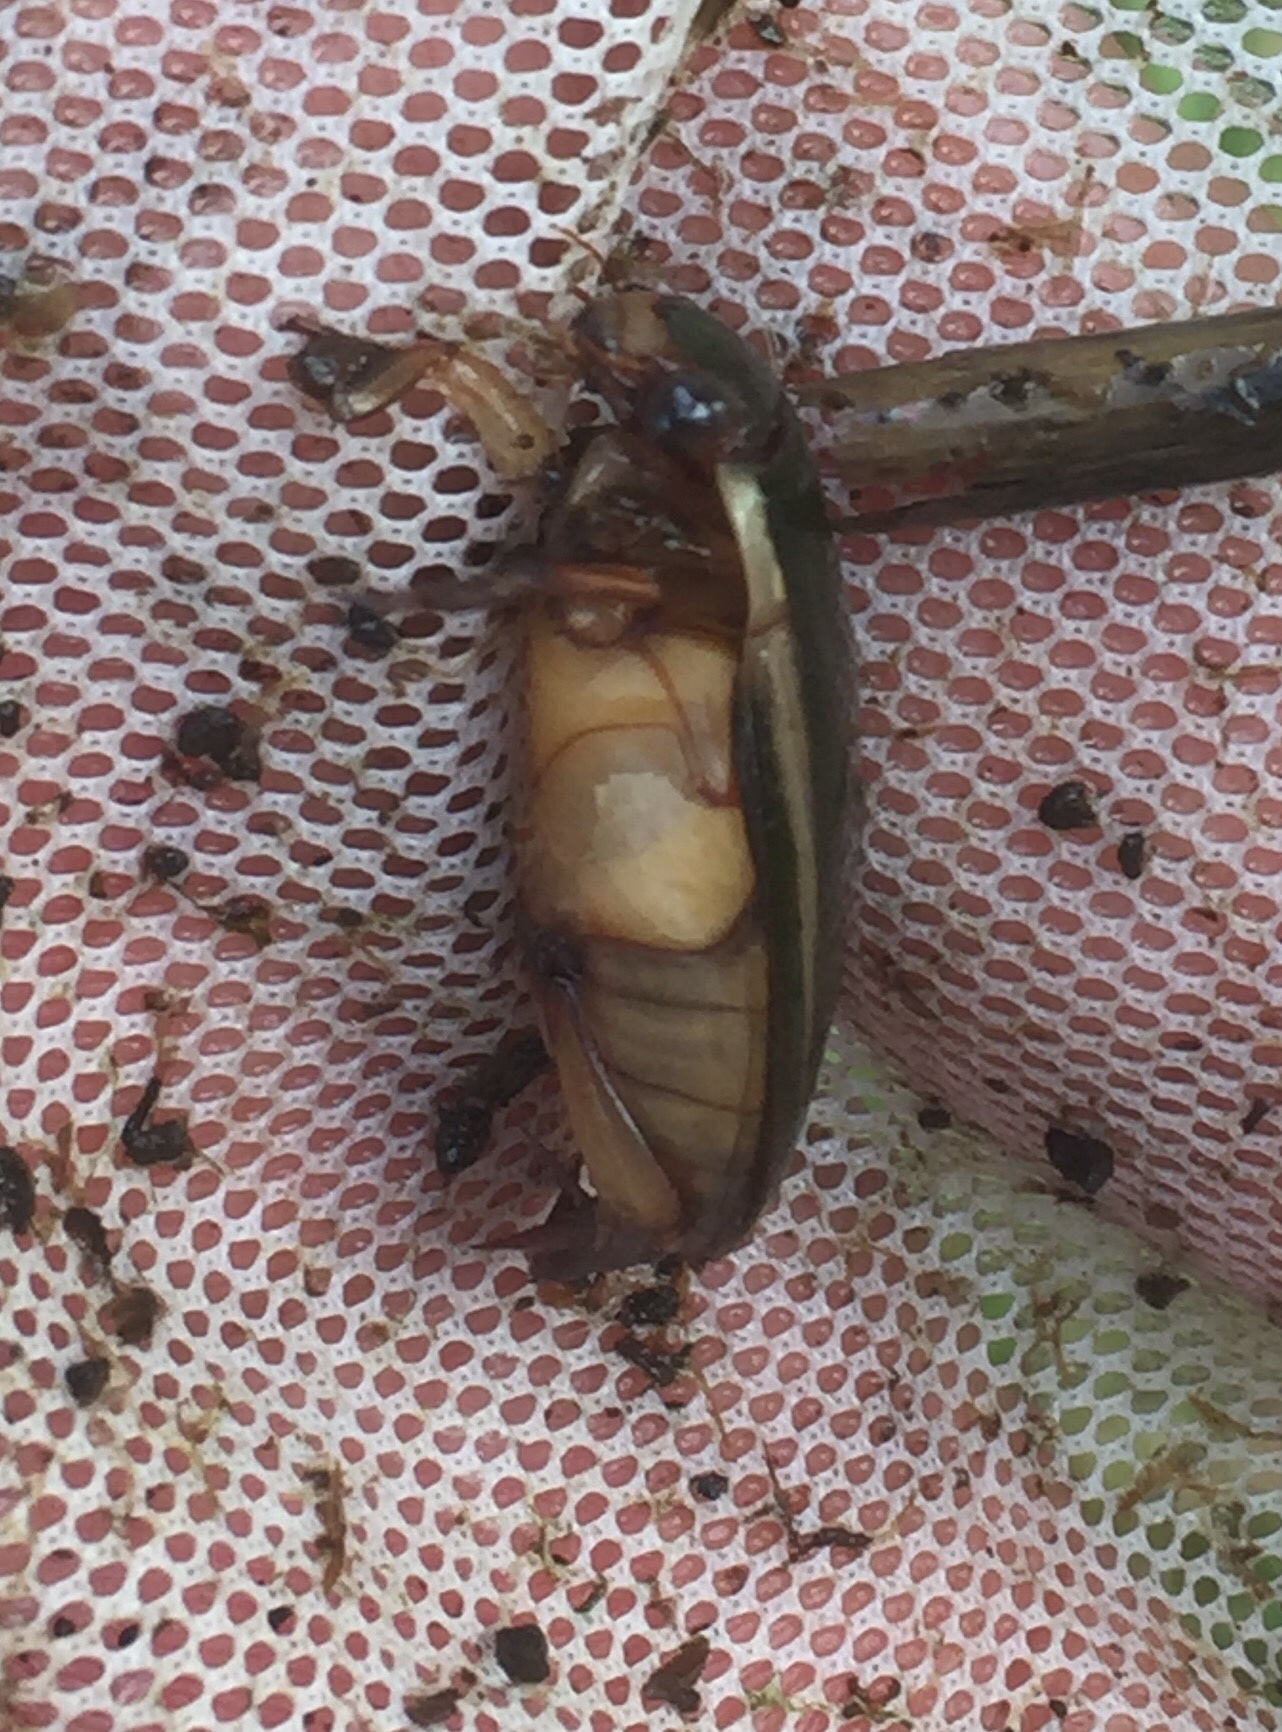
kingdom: Animalia
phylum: Arthropoda
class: Insecta
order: Coleoptera
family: Dytiscidae
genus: Cybister
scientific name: Cybister lateralimarginalis
